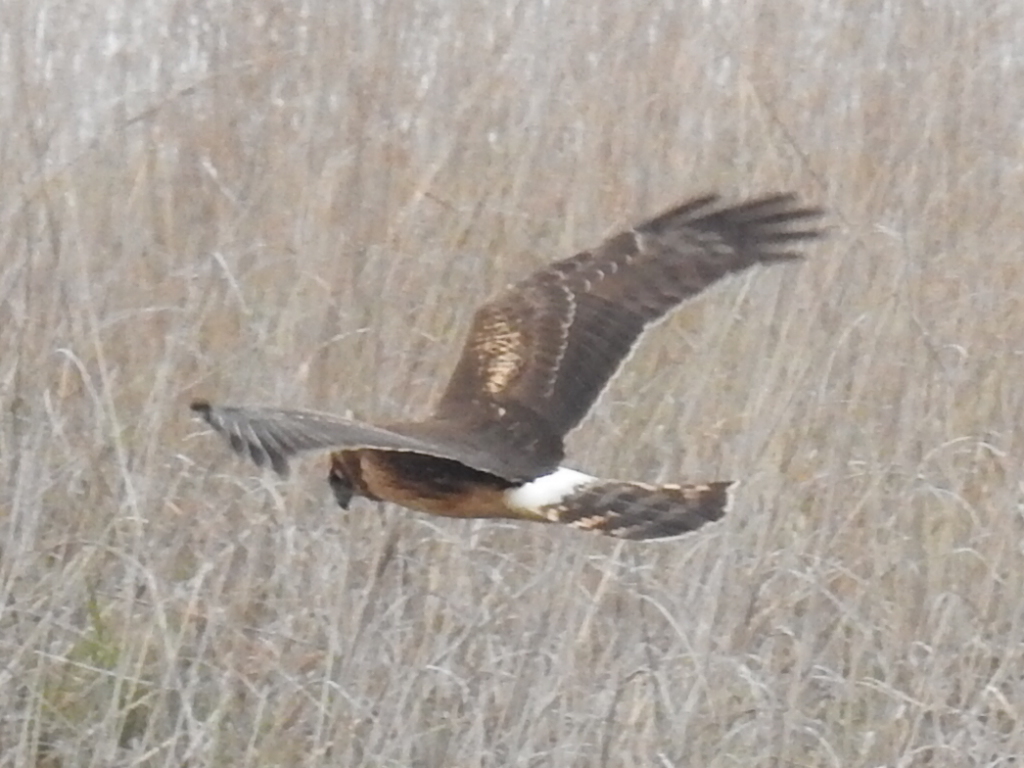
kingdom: Animalia
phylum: Chordata
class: Aves
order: Accipitriformes
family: Accipitridae
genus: Circus
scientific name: Circus cyaneus
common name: Hen harrier
